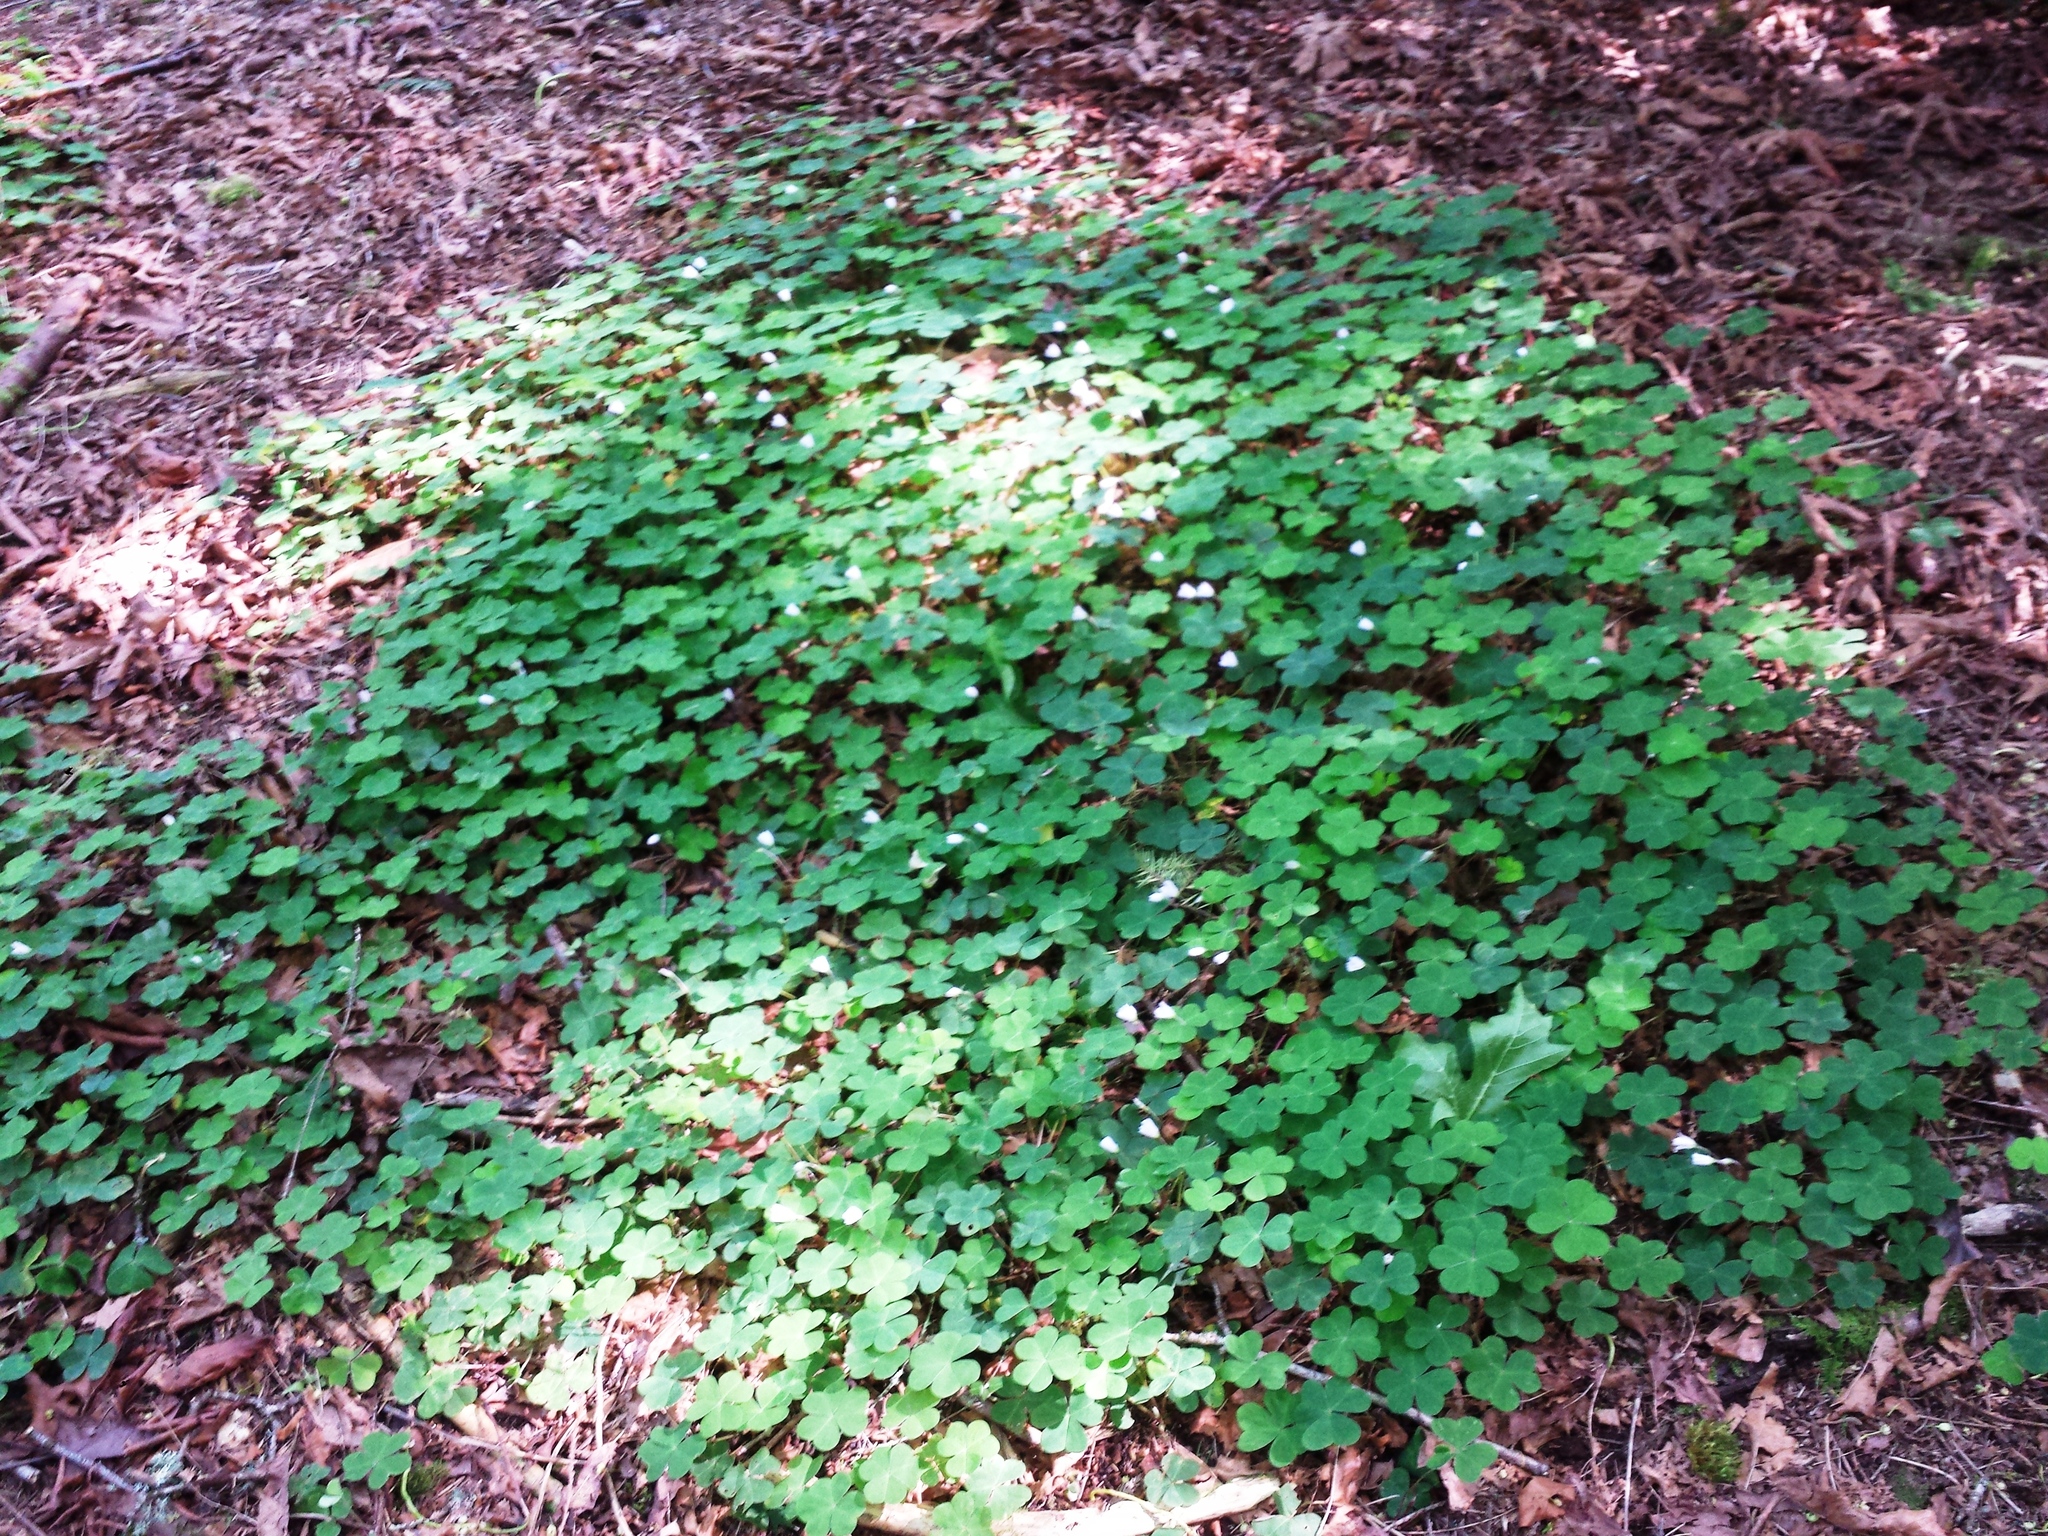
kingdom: Plantae
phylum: Tracheophyta
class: Magnoliopsida
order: Oxalidales
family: Oxalidaceae
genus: Oxalis
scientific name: Oxalis oregana
